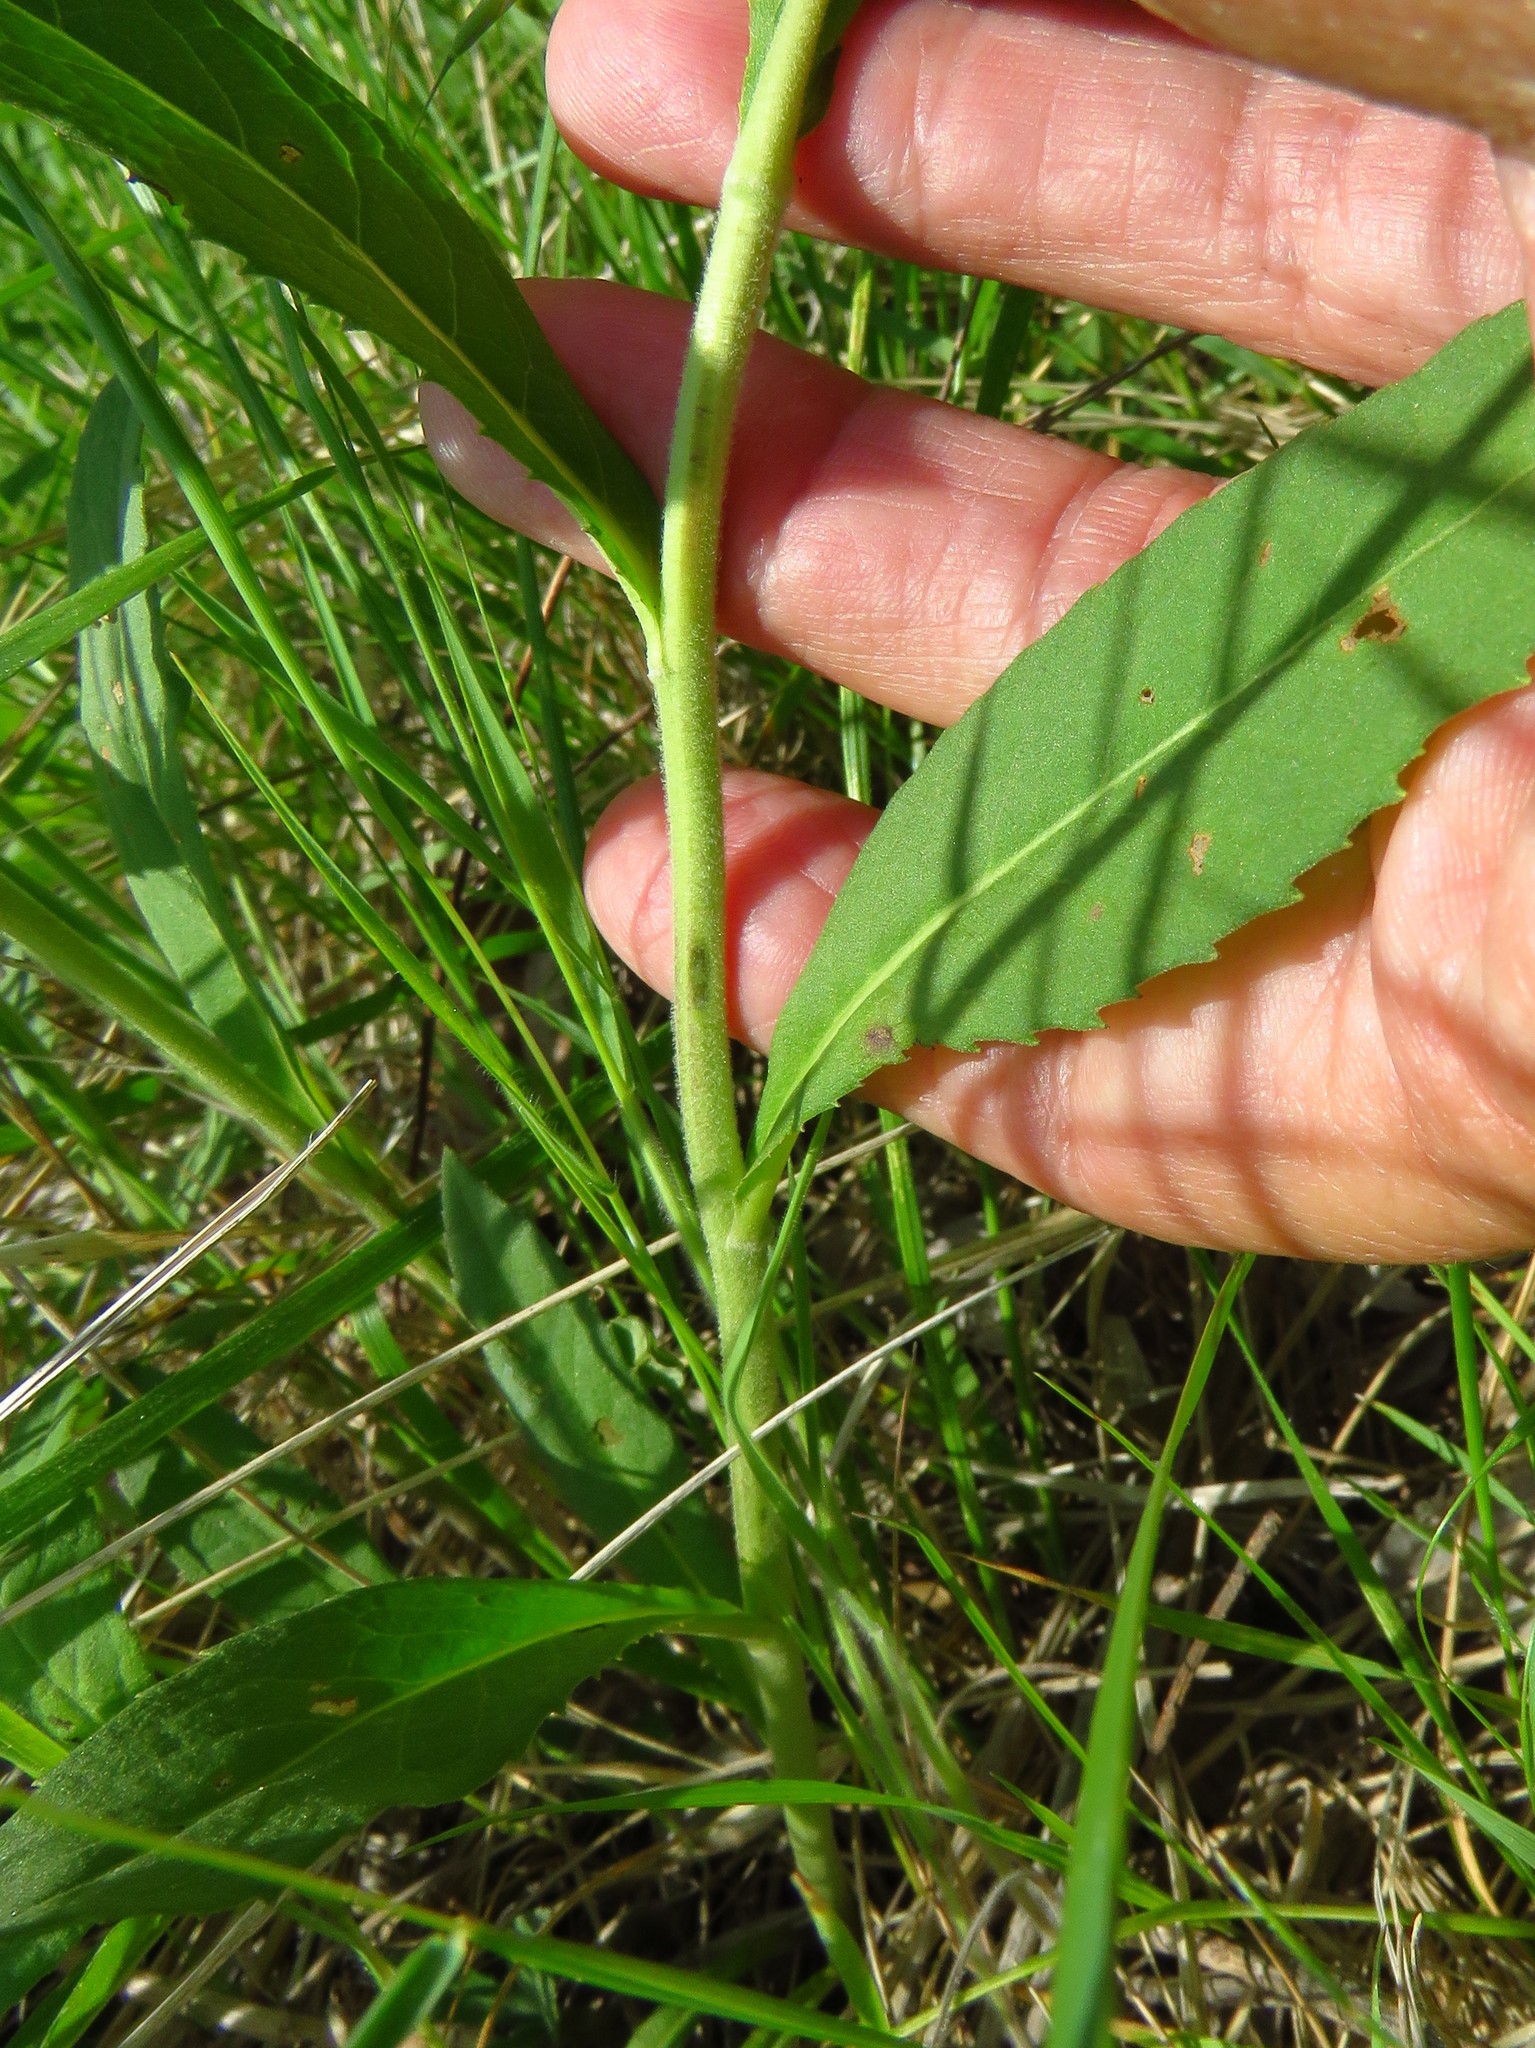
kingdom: Plantae
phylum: Tracheophyta
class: Magnoliopsida
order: Asterales
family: Asteraceae
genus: Vernonia
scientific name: Vernonia baldwinii
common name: Western ironweed
